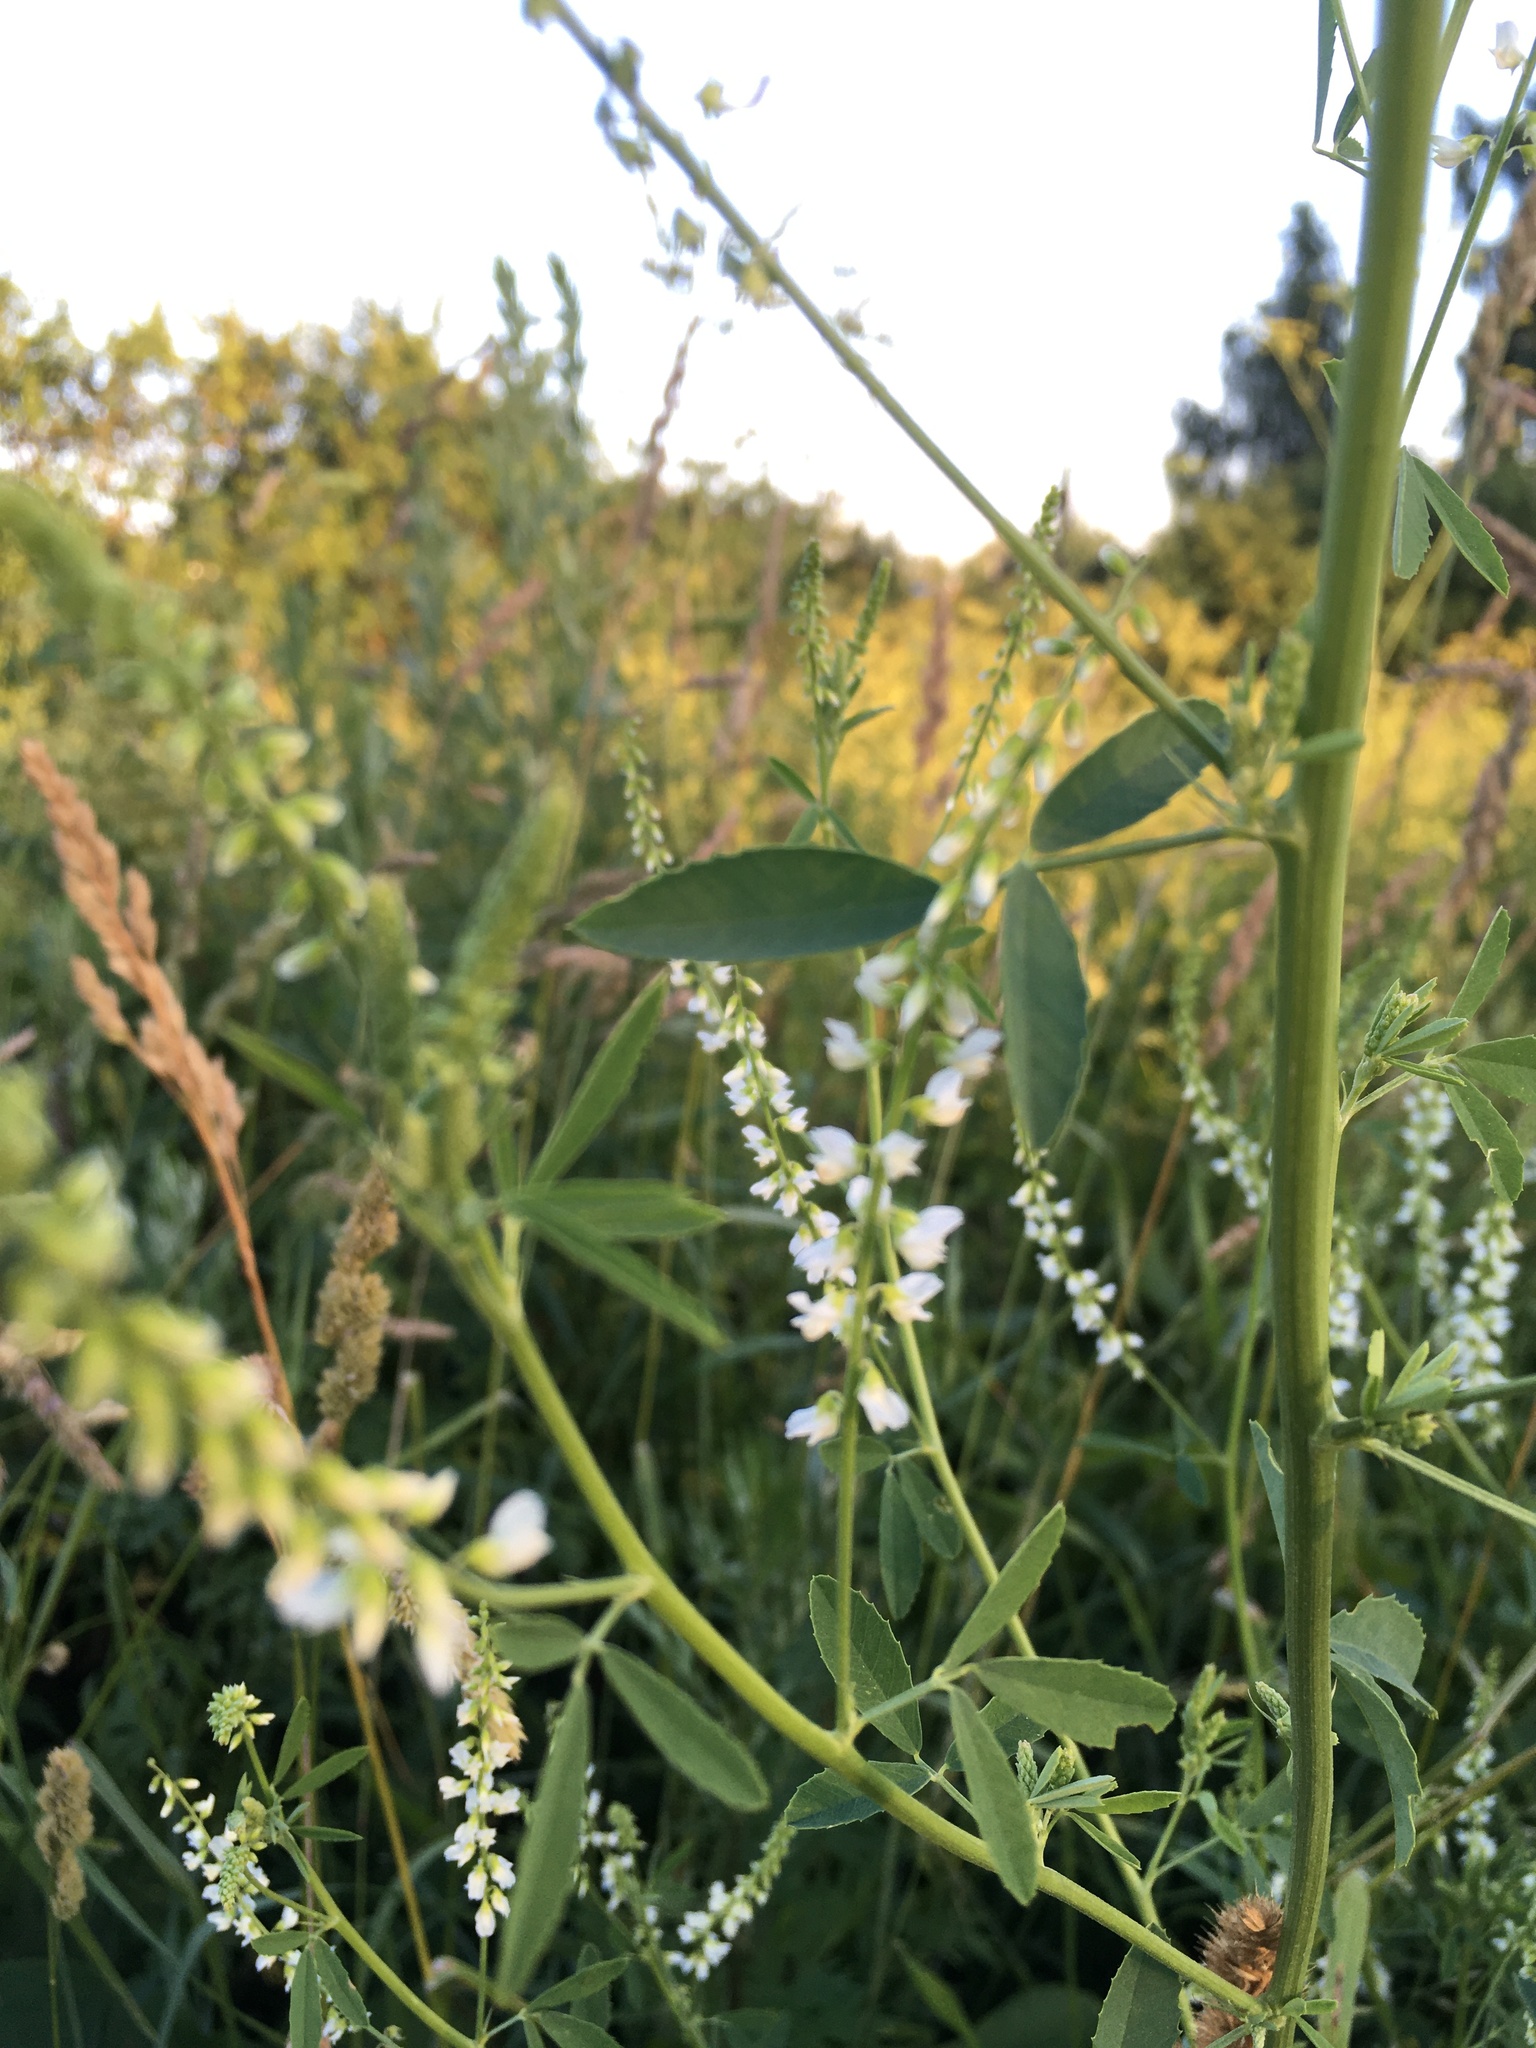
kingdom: Plantae
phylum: Tracheophyta
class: Magnoliopsida
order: Fabales
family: Fabaceae
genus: Melilotus
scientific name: Melilotus albus
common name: White melilot
